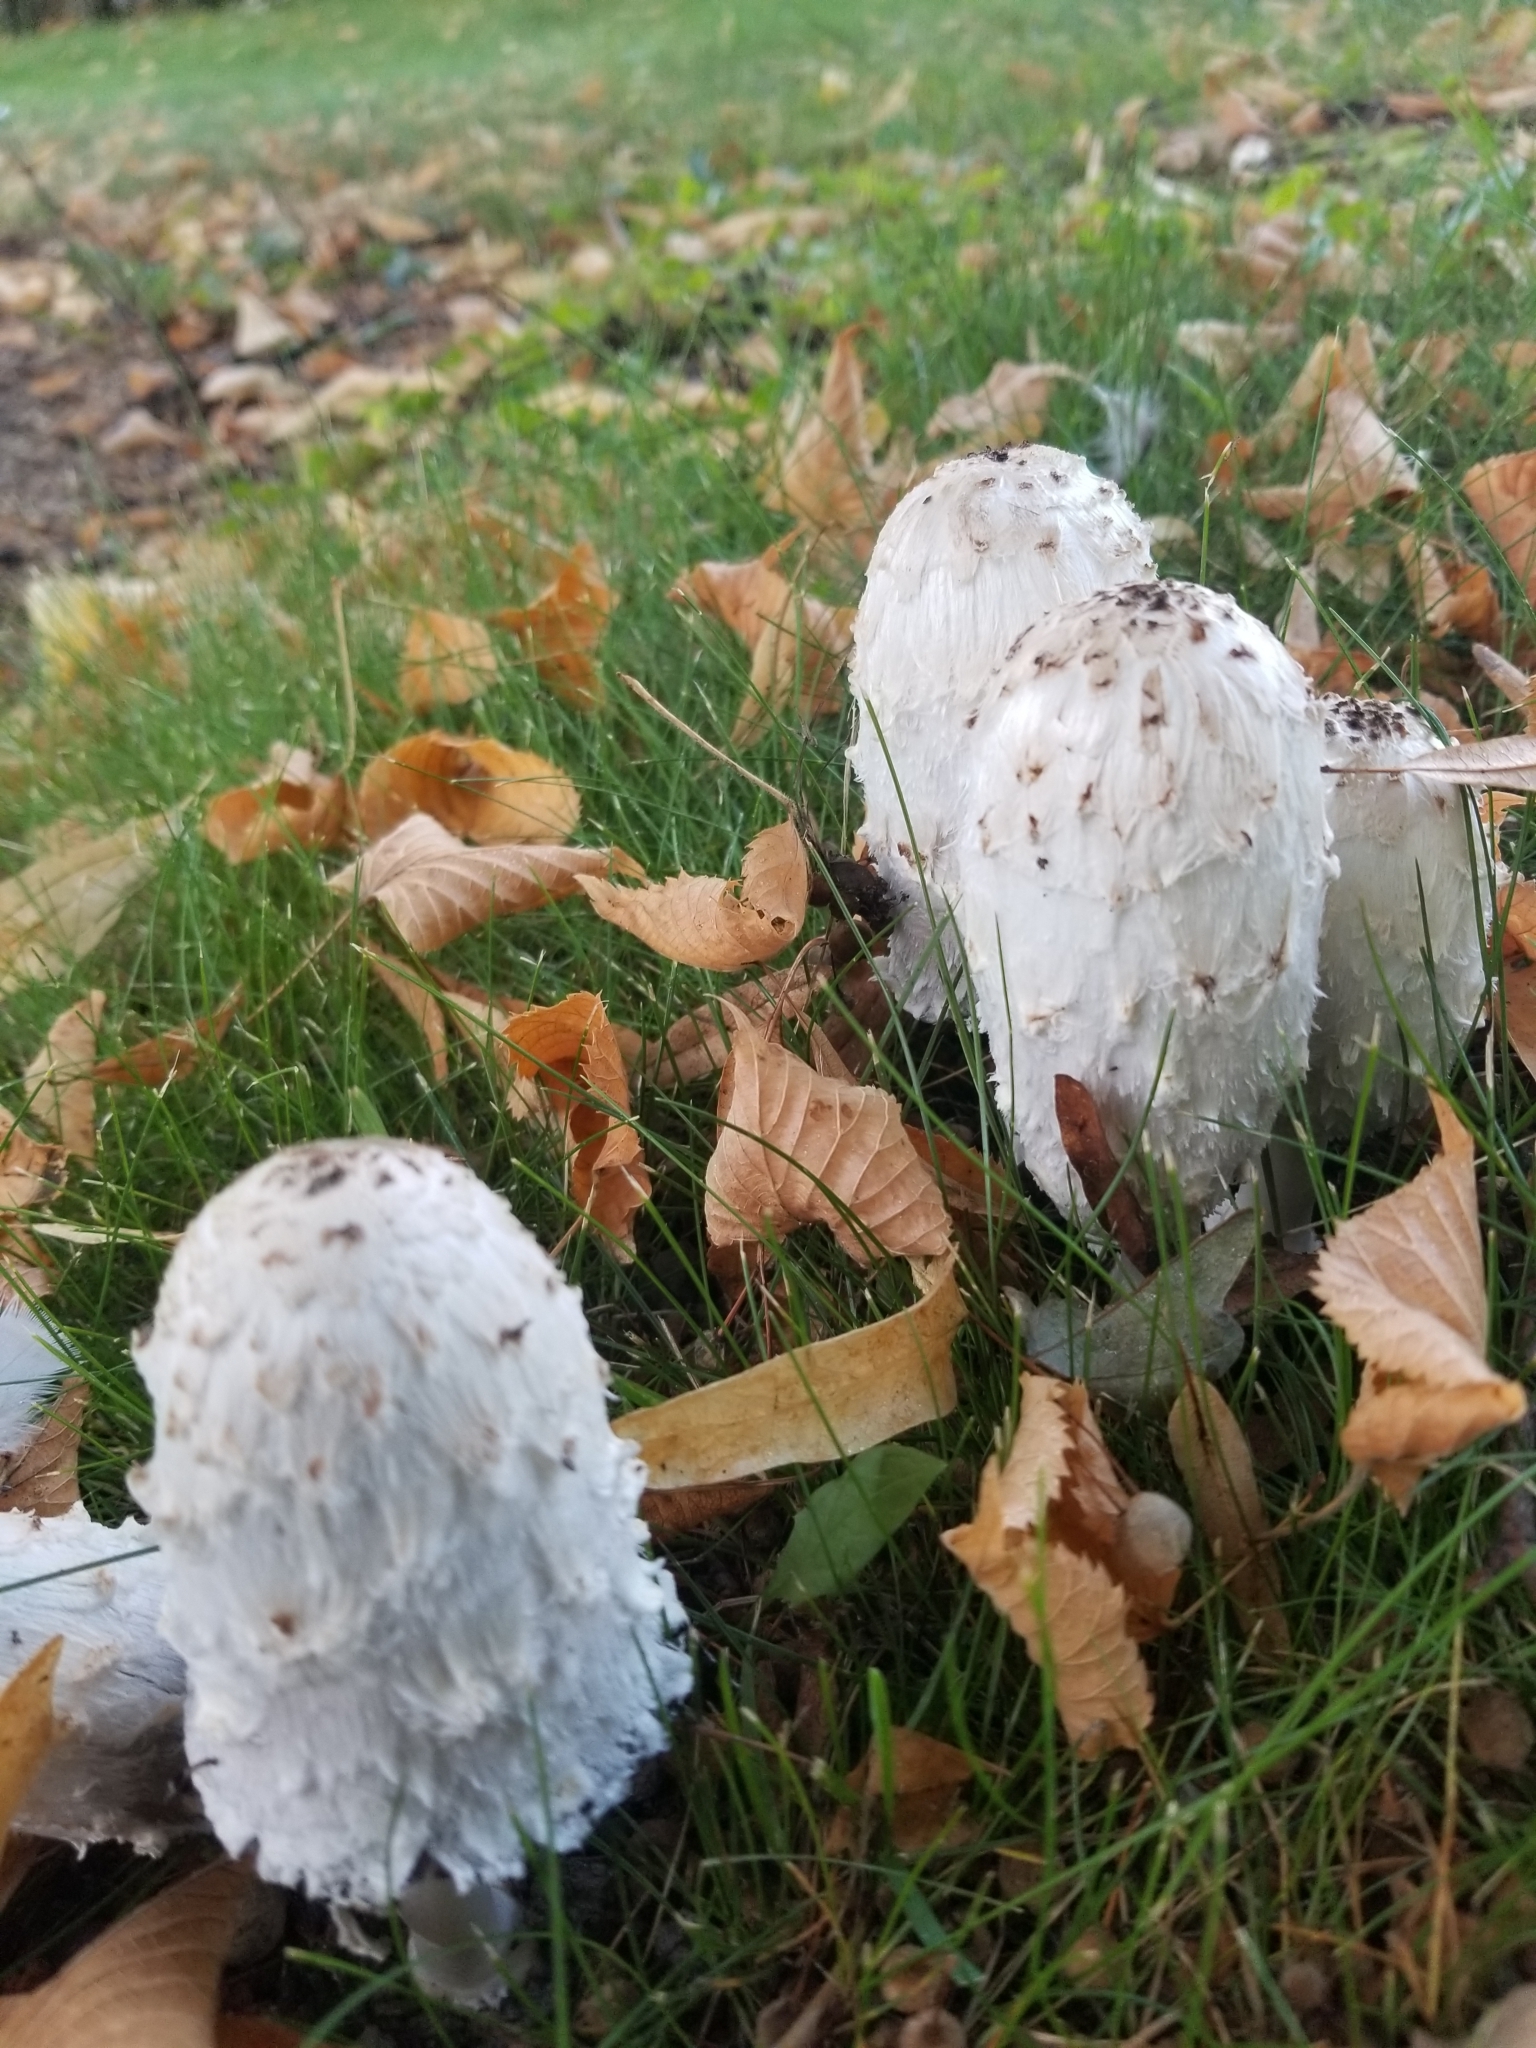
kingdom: Fungi
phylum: Basidiomycota
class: Agaricomycetes
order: Agaricales
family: Agaricaceae
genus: Coprinus
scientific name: Coprinus comatus
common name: Lawyer's wig
